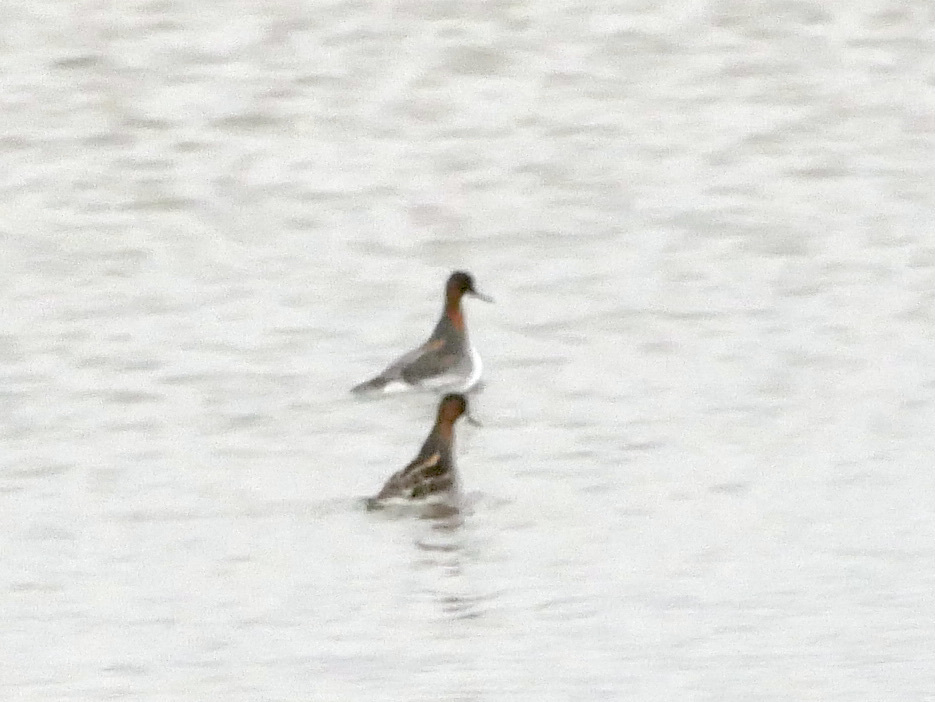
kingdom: Animalia
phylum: Chordata
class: Aves
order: Charadriiformes
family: Scolopacidae
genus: Phalaropus
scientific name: Phalaropus lobatus
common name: Red-necked phalarope
